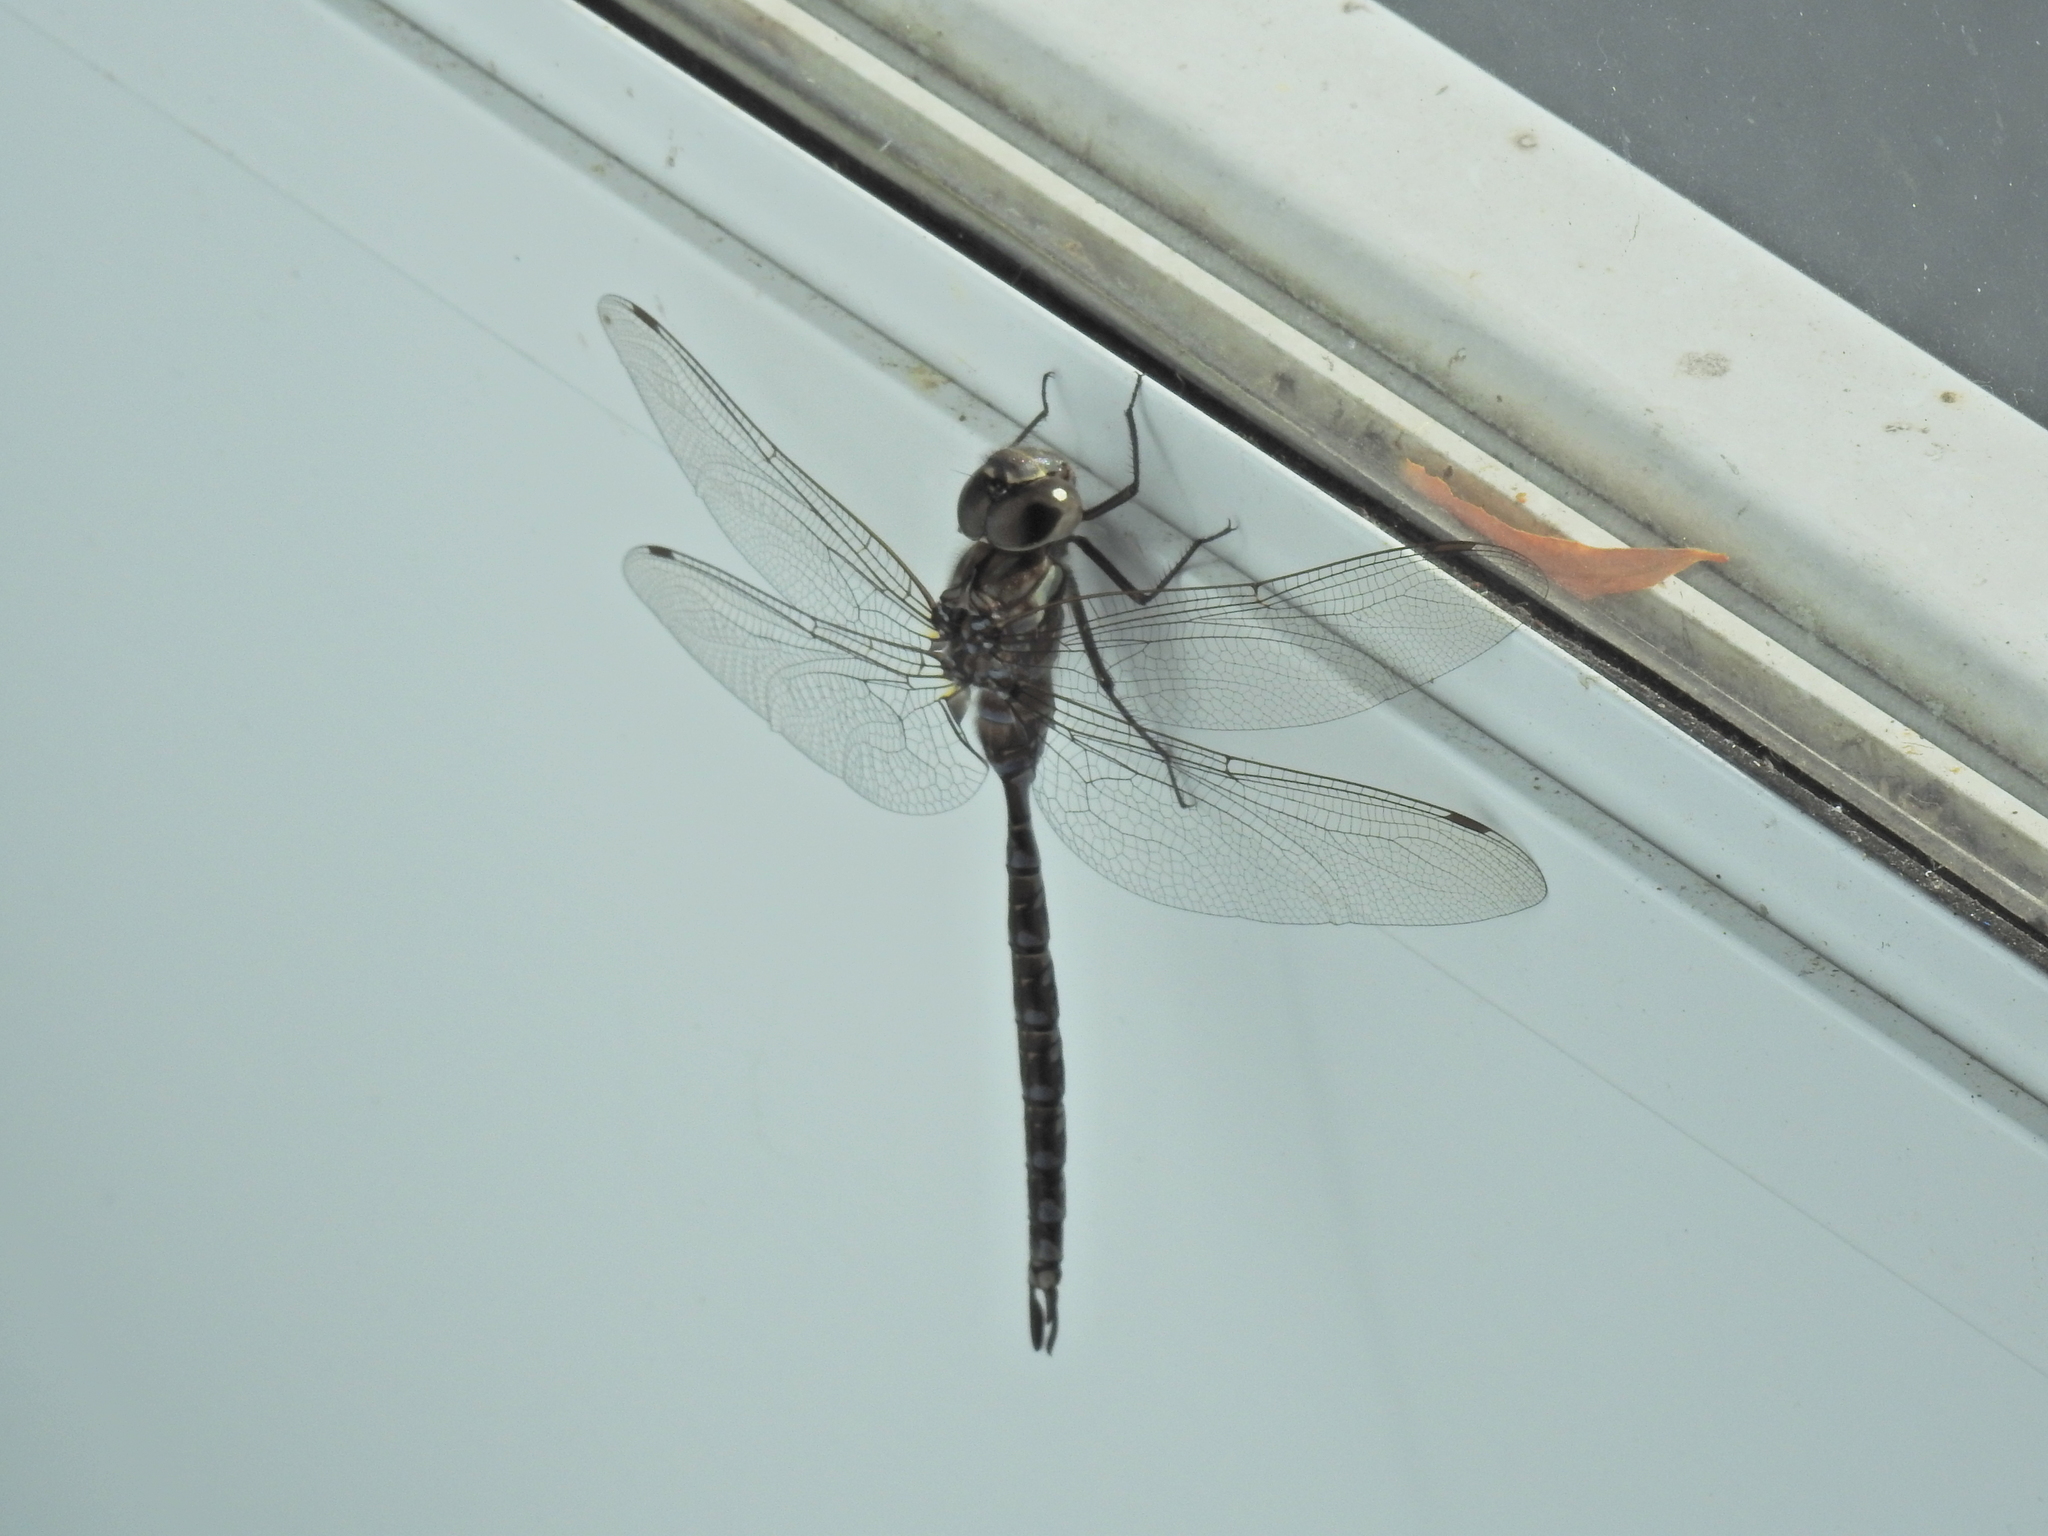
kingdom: Animalia
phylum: Arthropoda
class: Insecta
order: Odonata
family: Aeshnidae
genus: Aeshna
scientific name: Aeshna canadensis
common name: Canada darner
